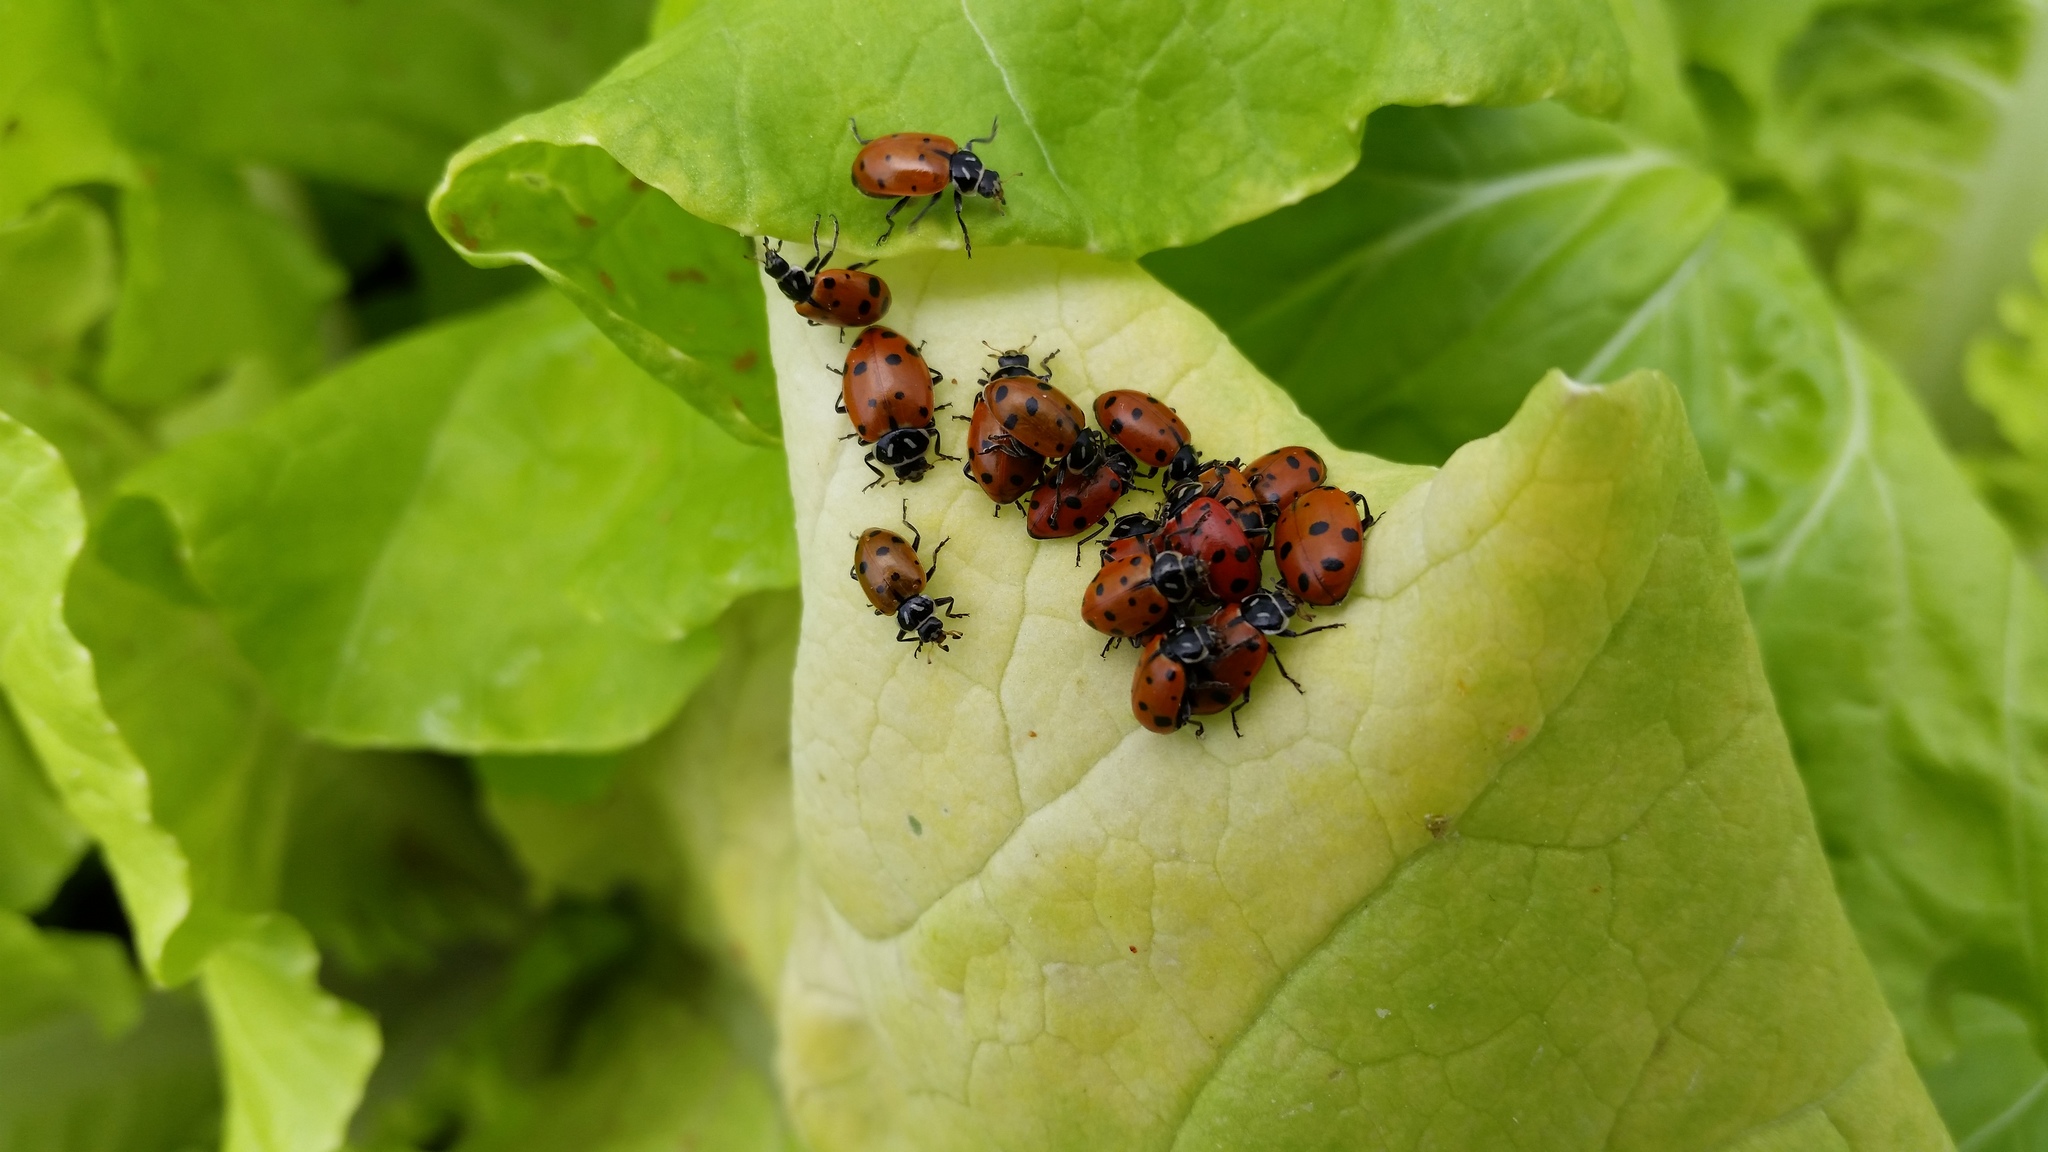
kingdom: Animalia
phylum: Arthropoda
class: Insecta
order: Coleoptera
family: Coccinellidae
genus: Hippodamia
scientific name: Hippodamia convergens
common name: Convergent lady beetle
